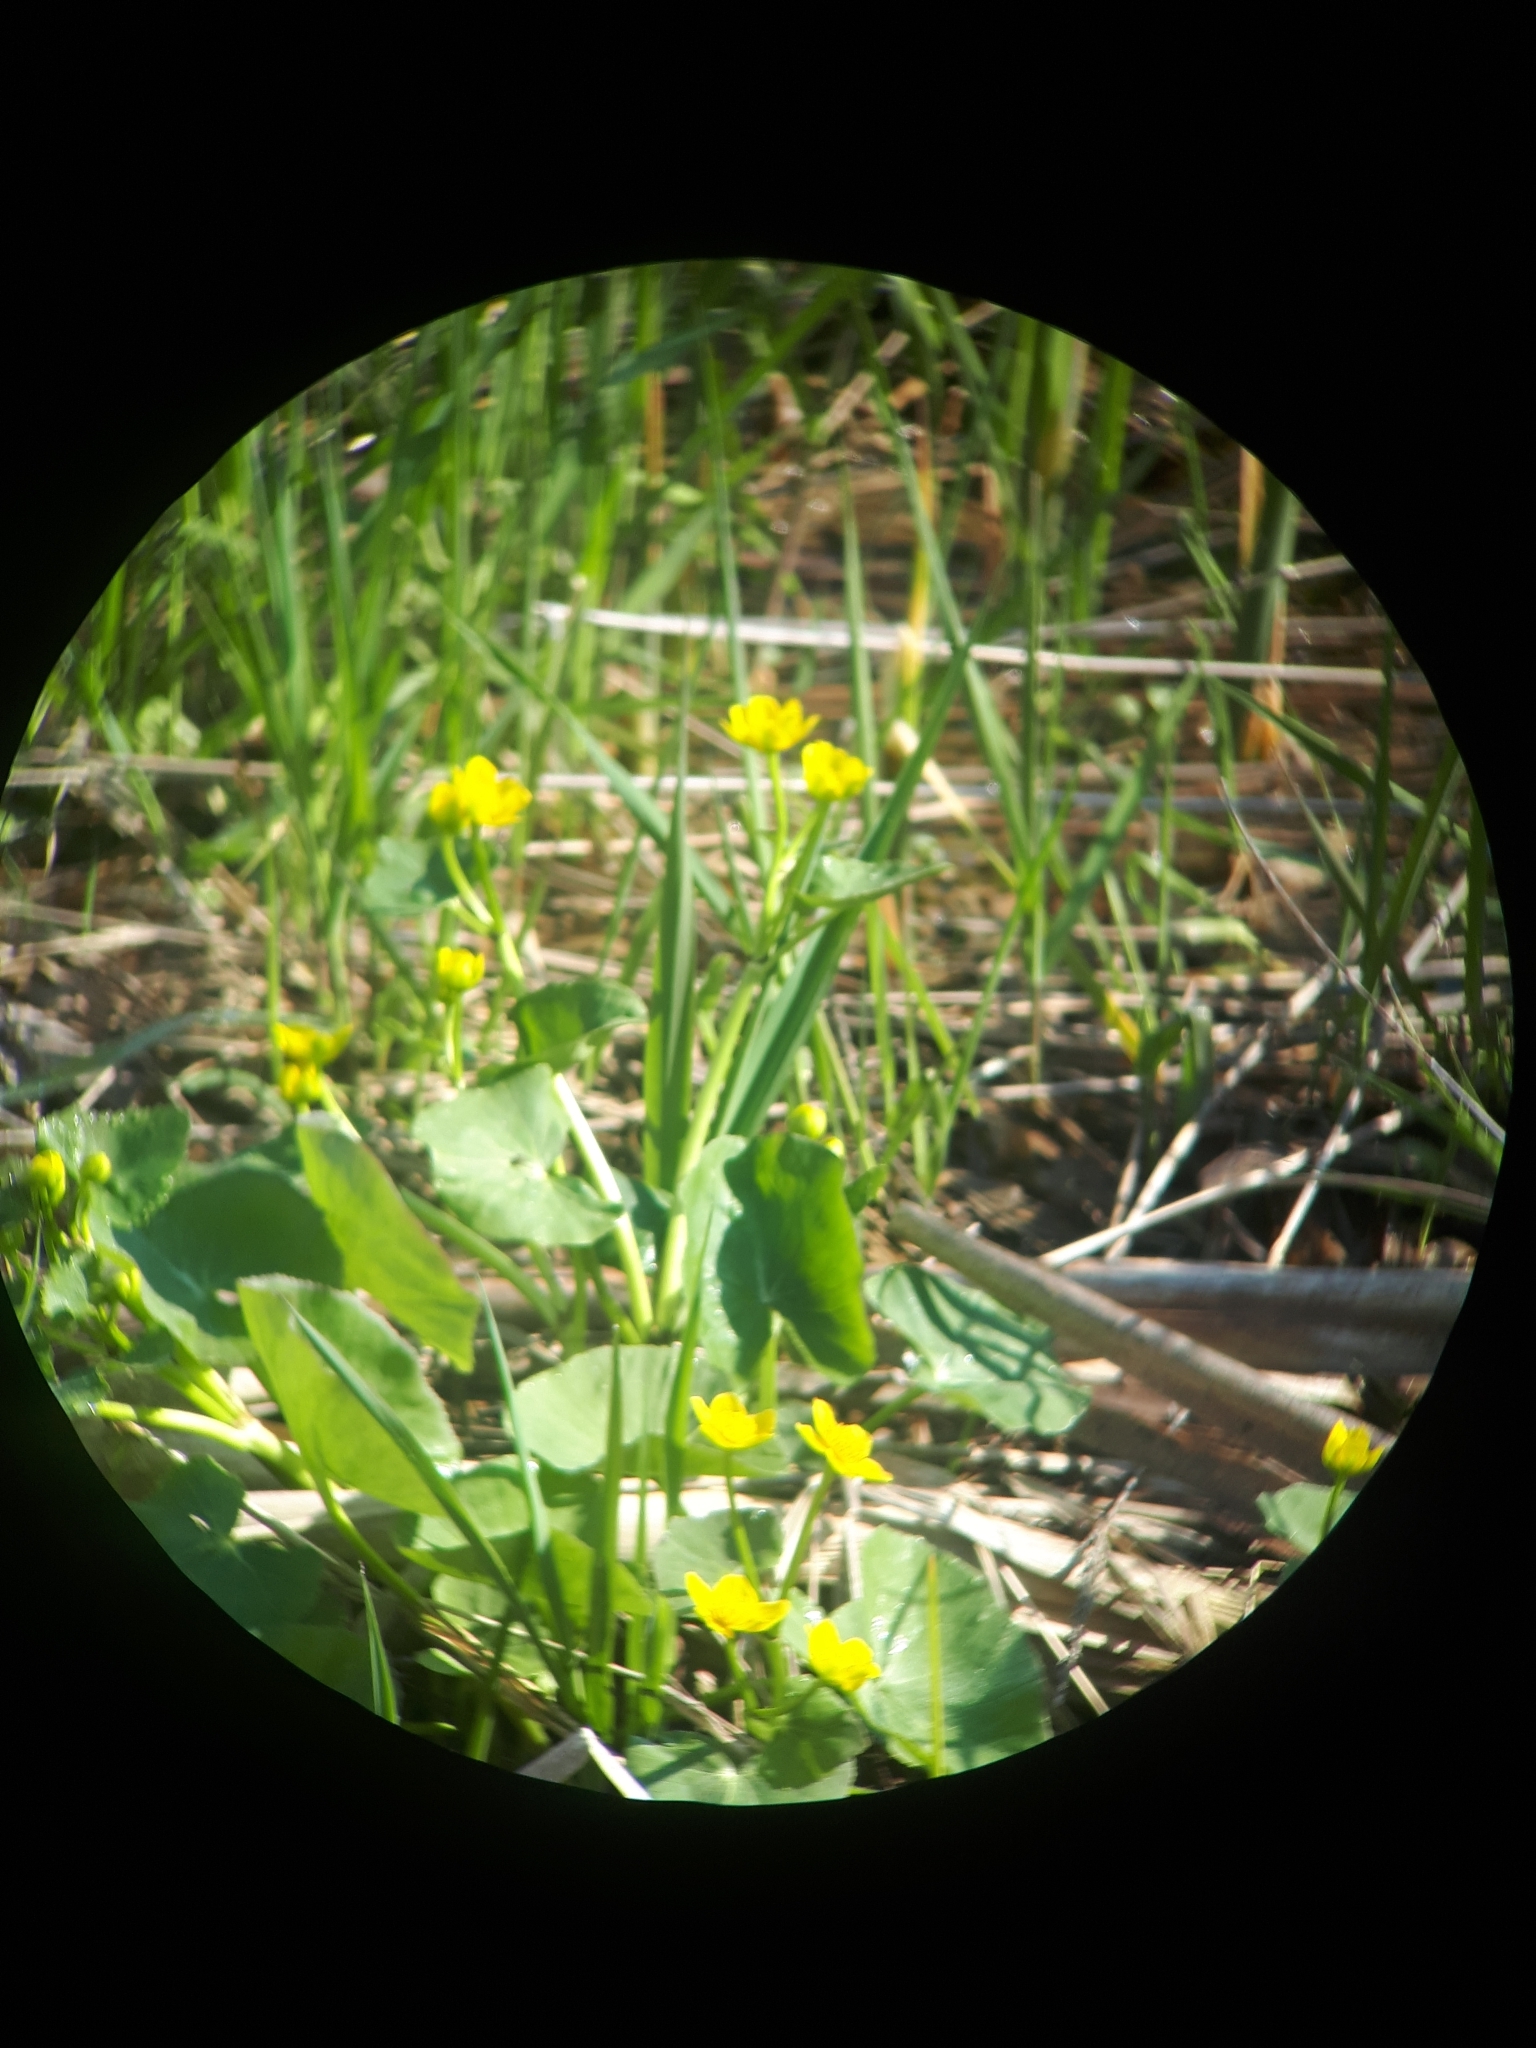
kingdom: Plantae
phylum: Tracheophyta
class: Magnoliopsida
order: Ranunculales
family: Ranunculaceae
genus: Caltha
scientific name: Caltha palustris
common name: Marsh marigold
